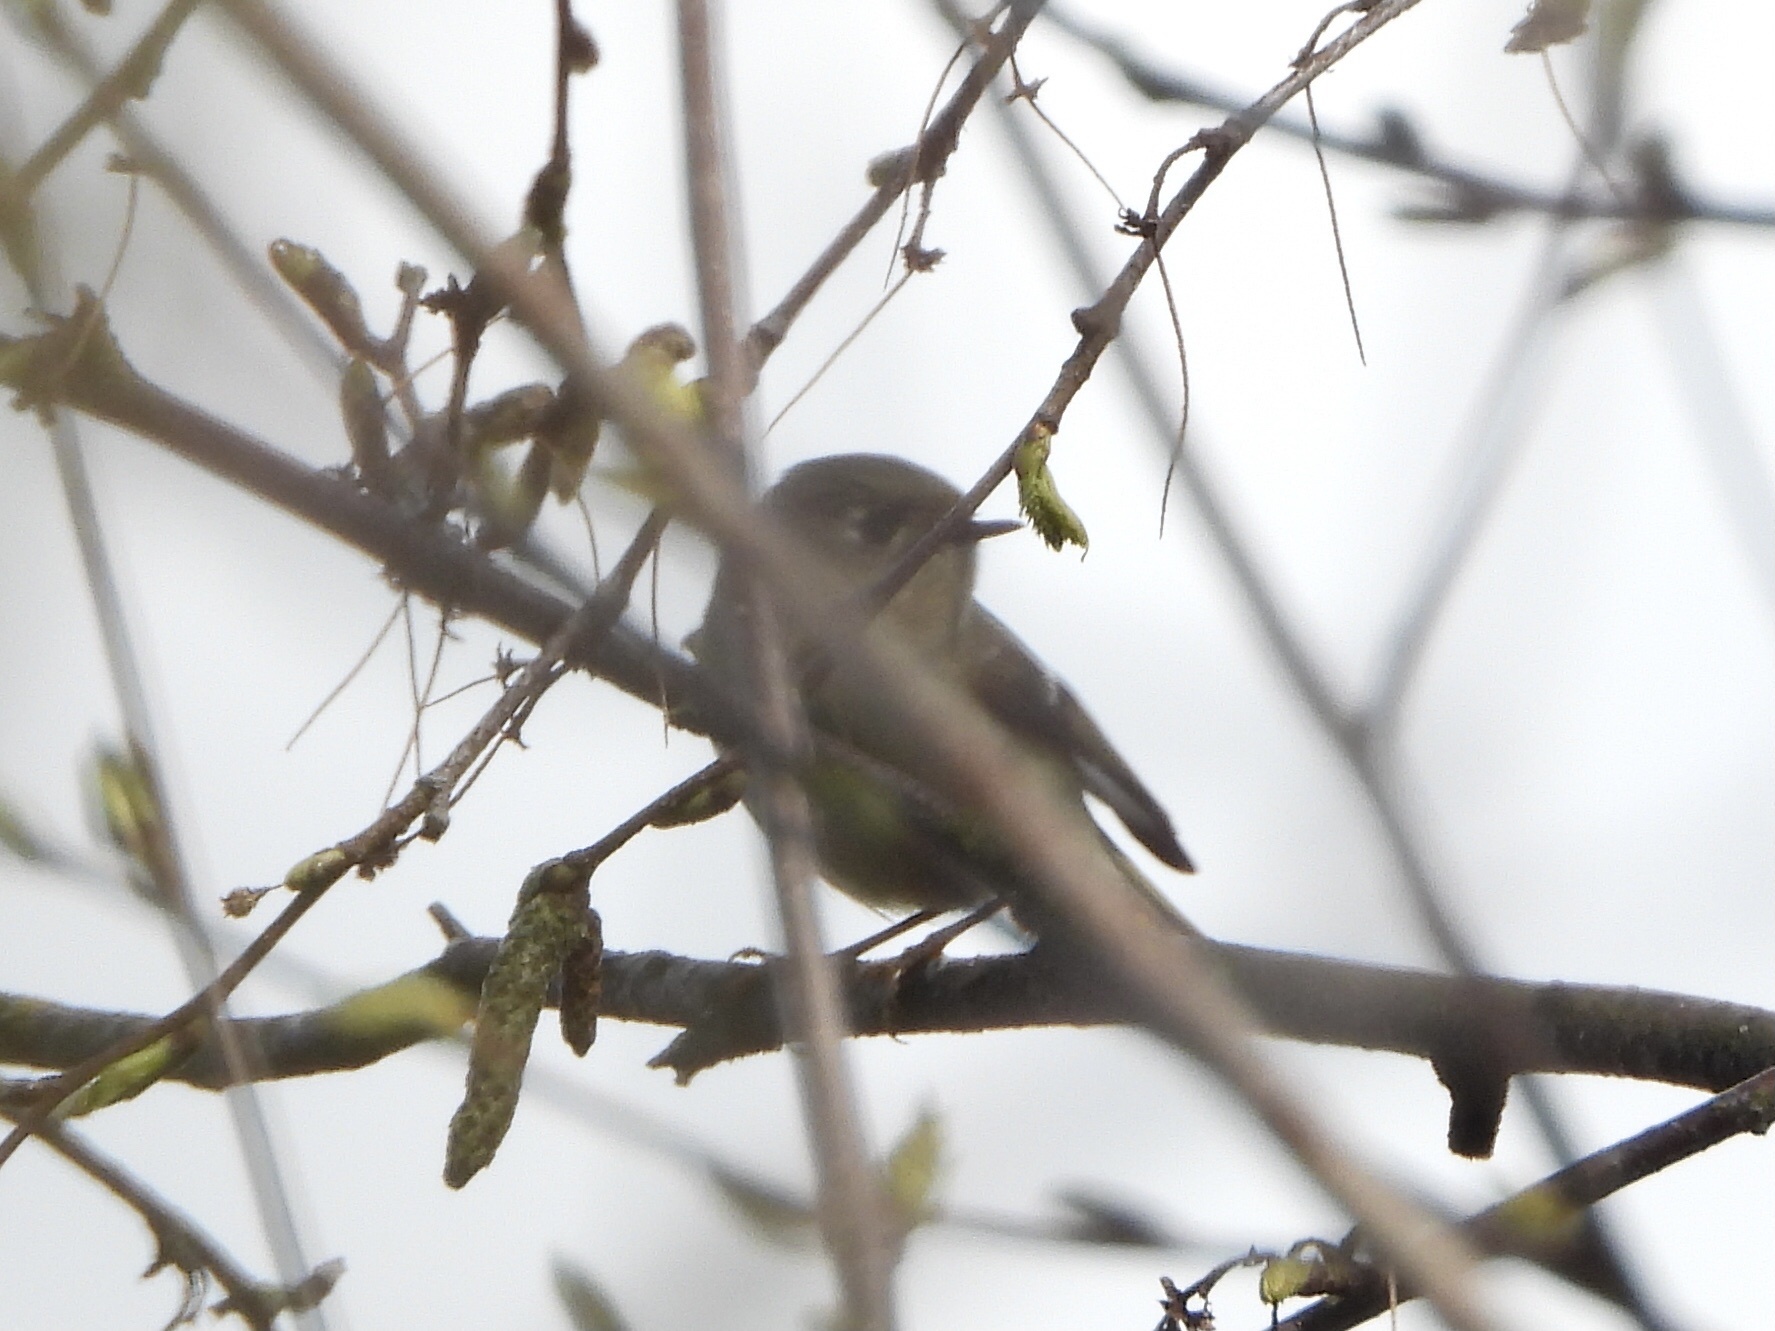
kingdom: Animalia
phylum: Chordata
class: Aves
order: Passeriformes
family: Regulidae
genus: Regulus
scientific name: Regulus calendula
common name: Ruby-crowned kinglet
